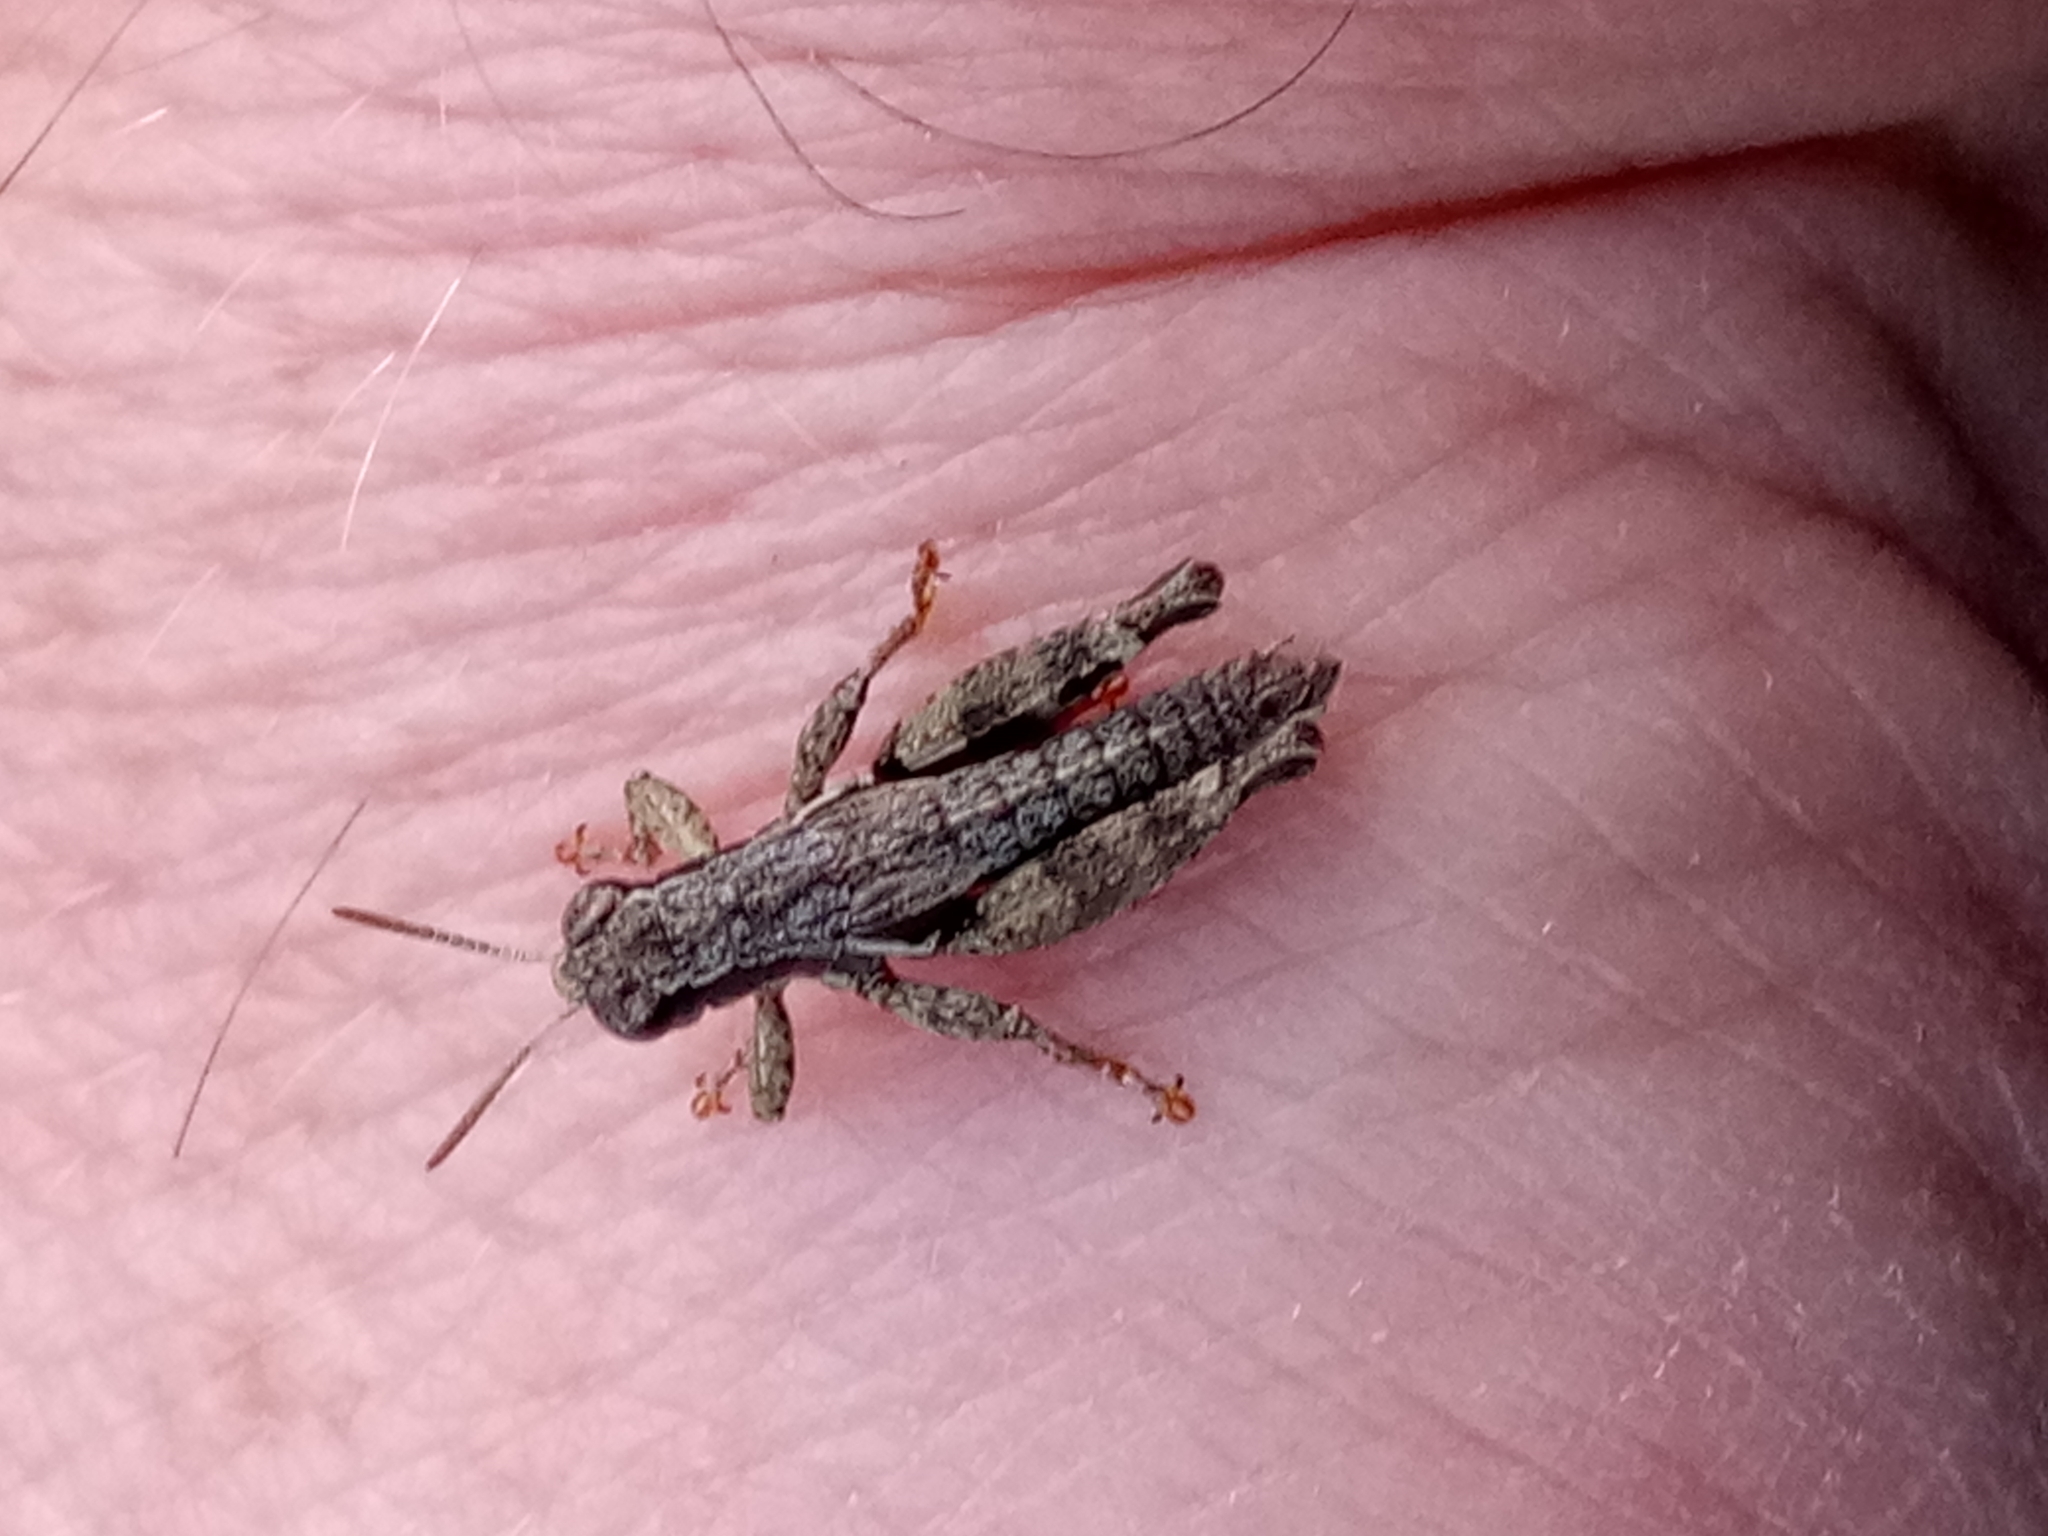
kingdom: Animalia
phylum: Arthropoda
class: Insecta
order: Orthoptera
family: Acrididae
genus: Pezotettix
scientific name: Pezotettix giornae
